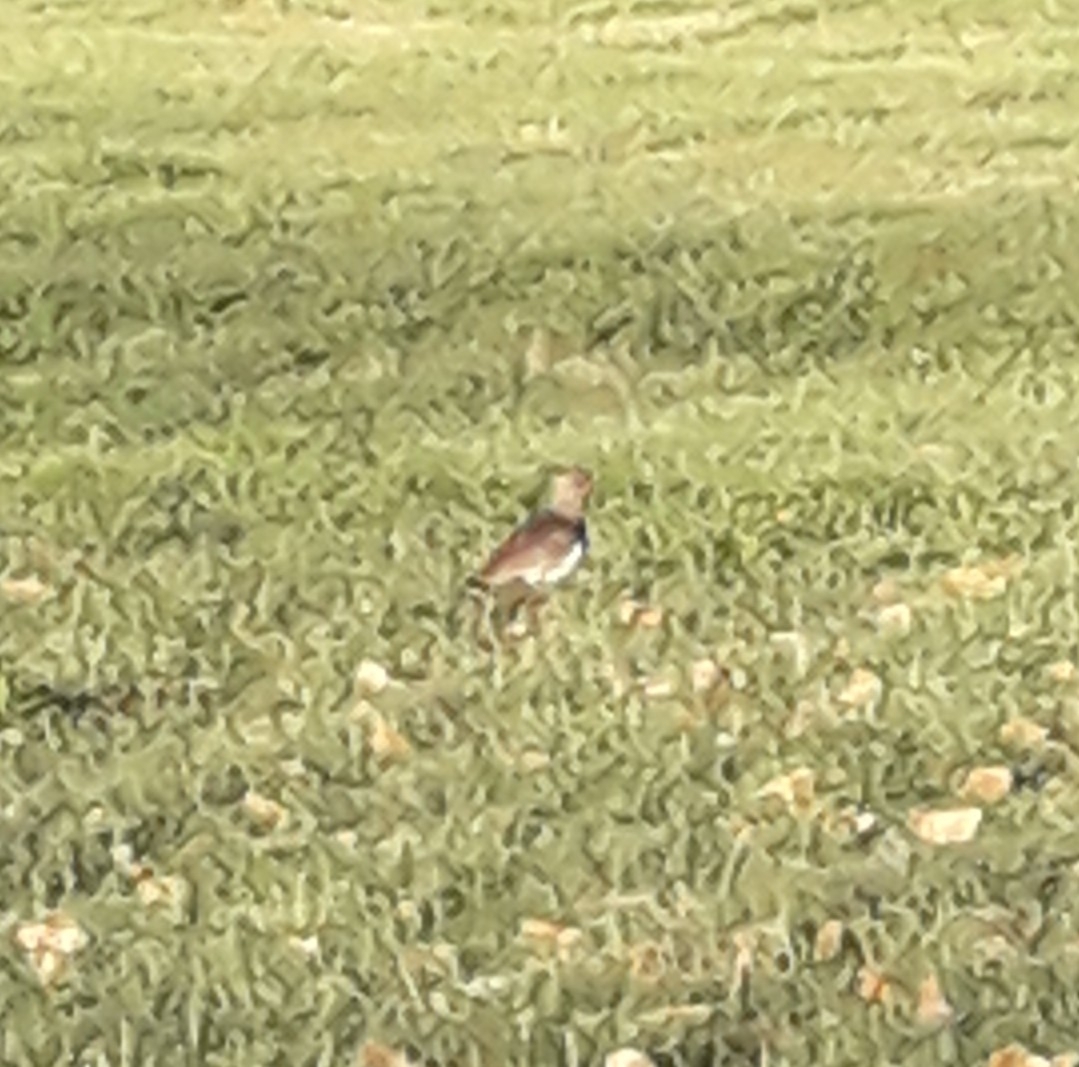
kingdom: Animalia
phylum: Chordata
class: Aves
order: Charadriiformes
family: Charadriidae
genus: Vanellus
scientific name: Vanellus chilensis
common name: Southern lapwing
